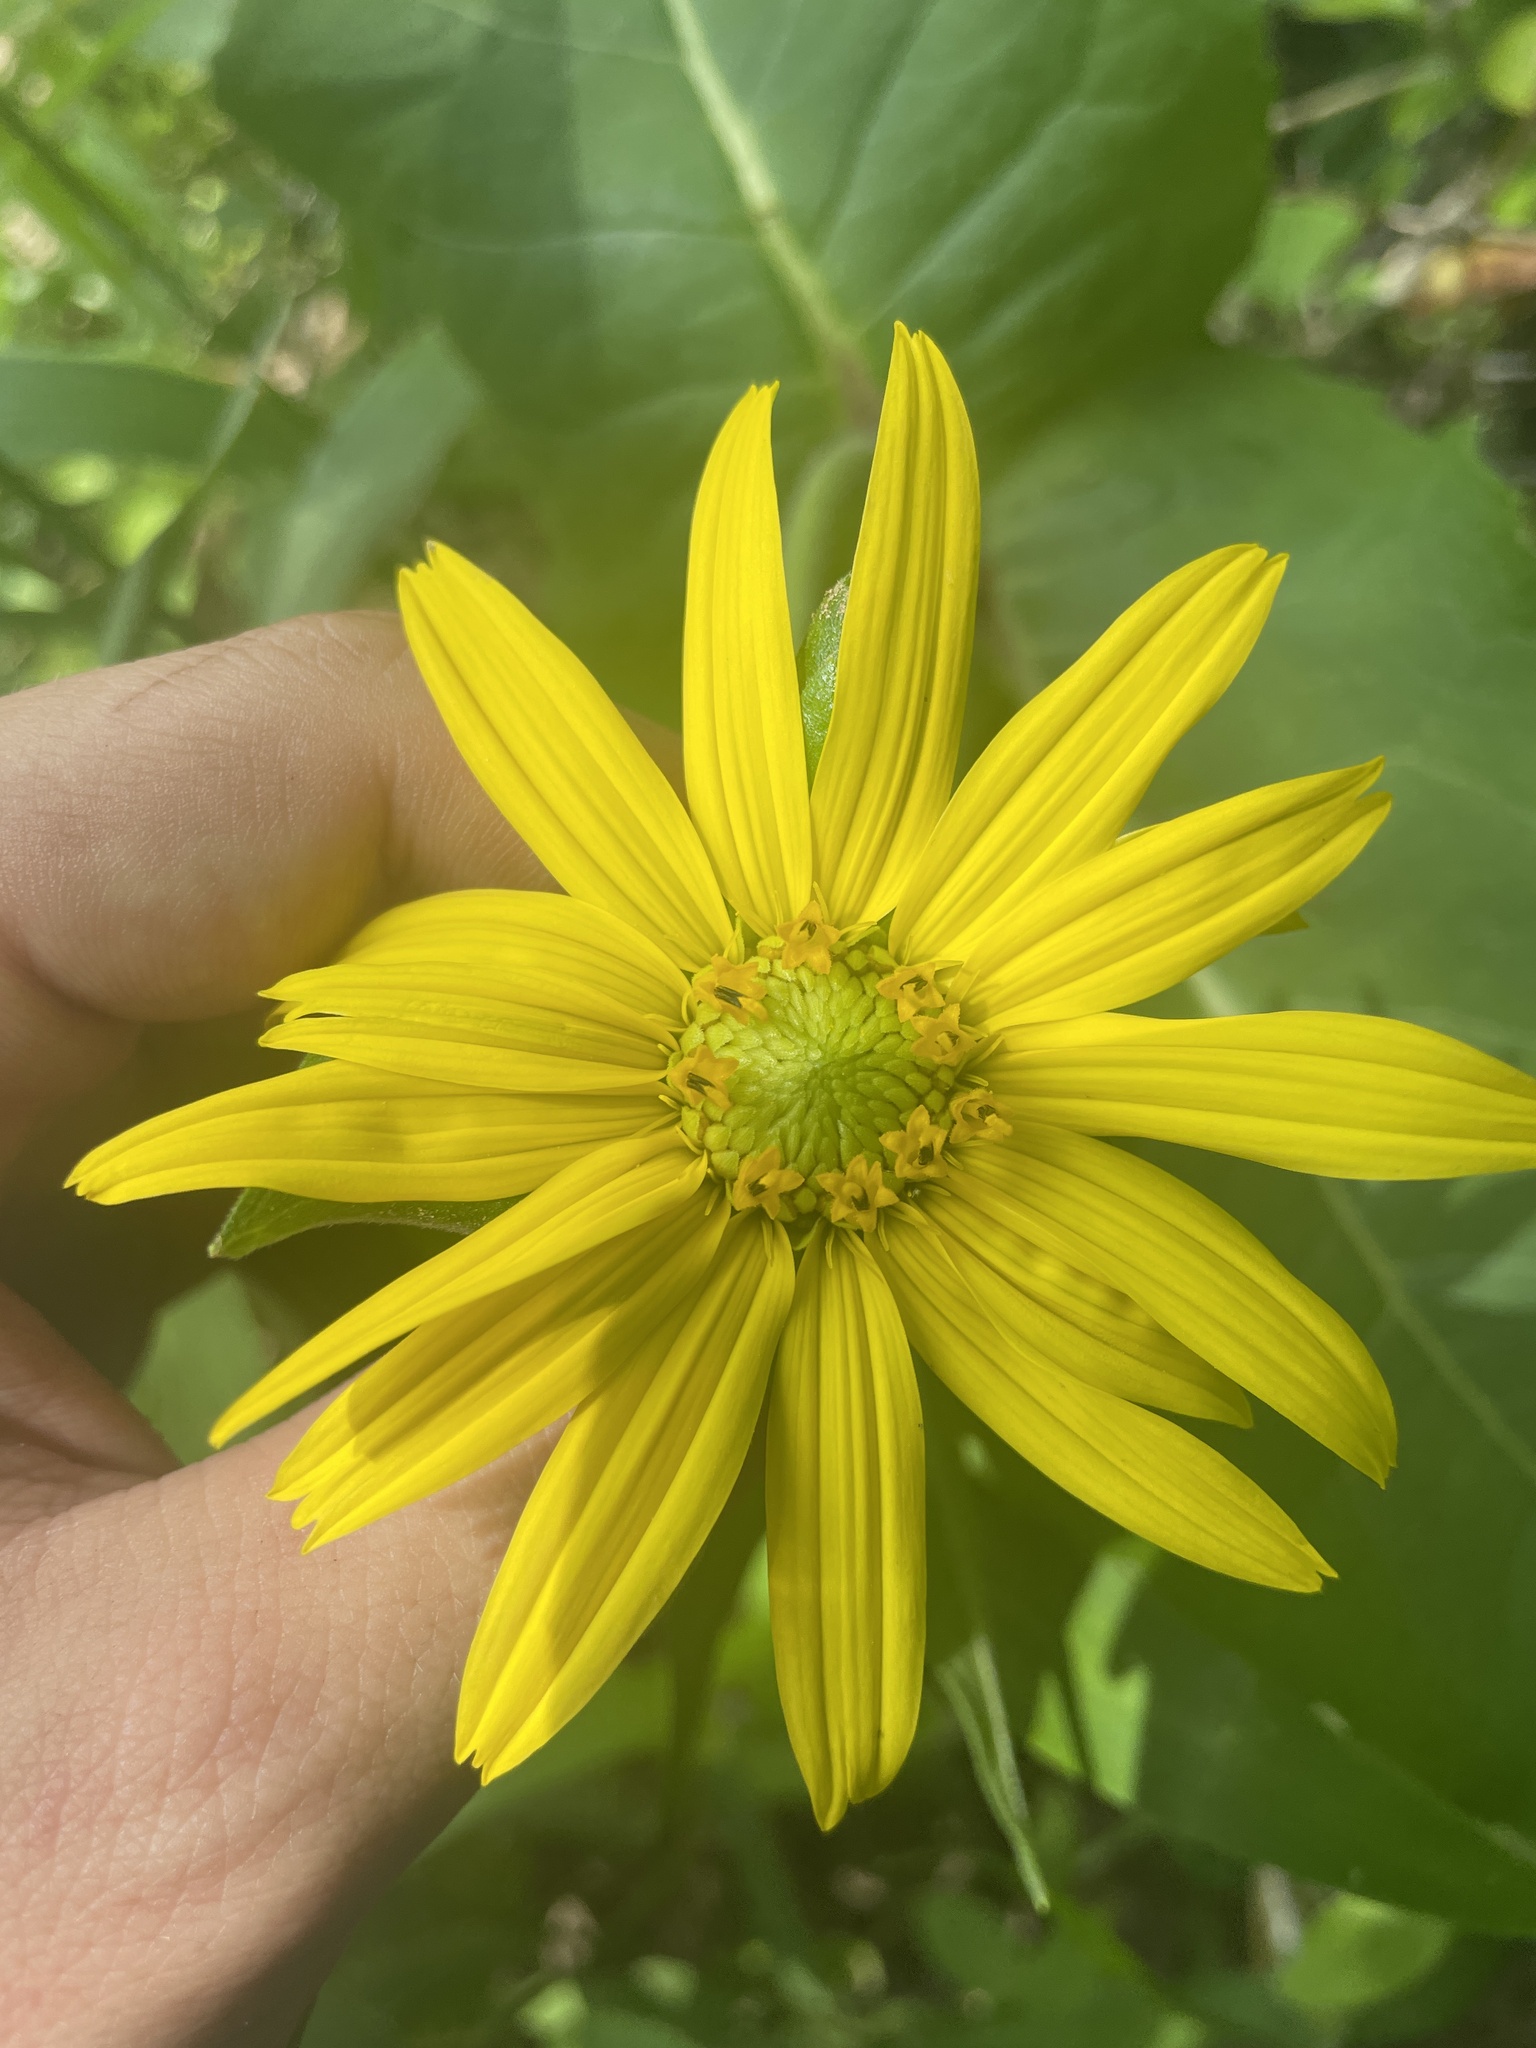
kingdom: Plantae
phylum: Tracheophyta
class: Magnoliopsida
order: Asterales
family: Asteraceae
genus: Silphium
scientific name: Silphium perfoliatum
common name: Cup-plant
